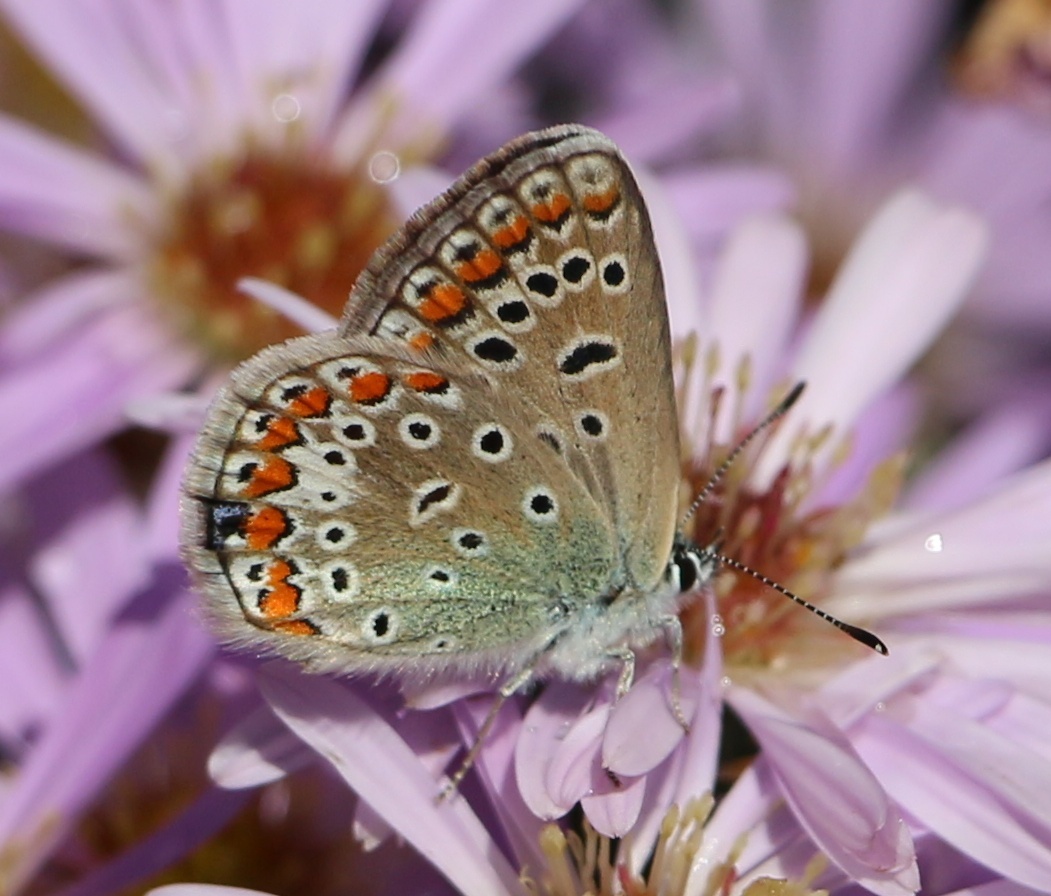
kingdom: Animalia
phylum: Arthropoda
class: Insecta
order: Lepidoptera
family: Lycaenidae
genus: Polyommatus
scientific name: Polyommatus icarus
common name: Common blue
